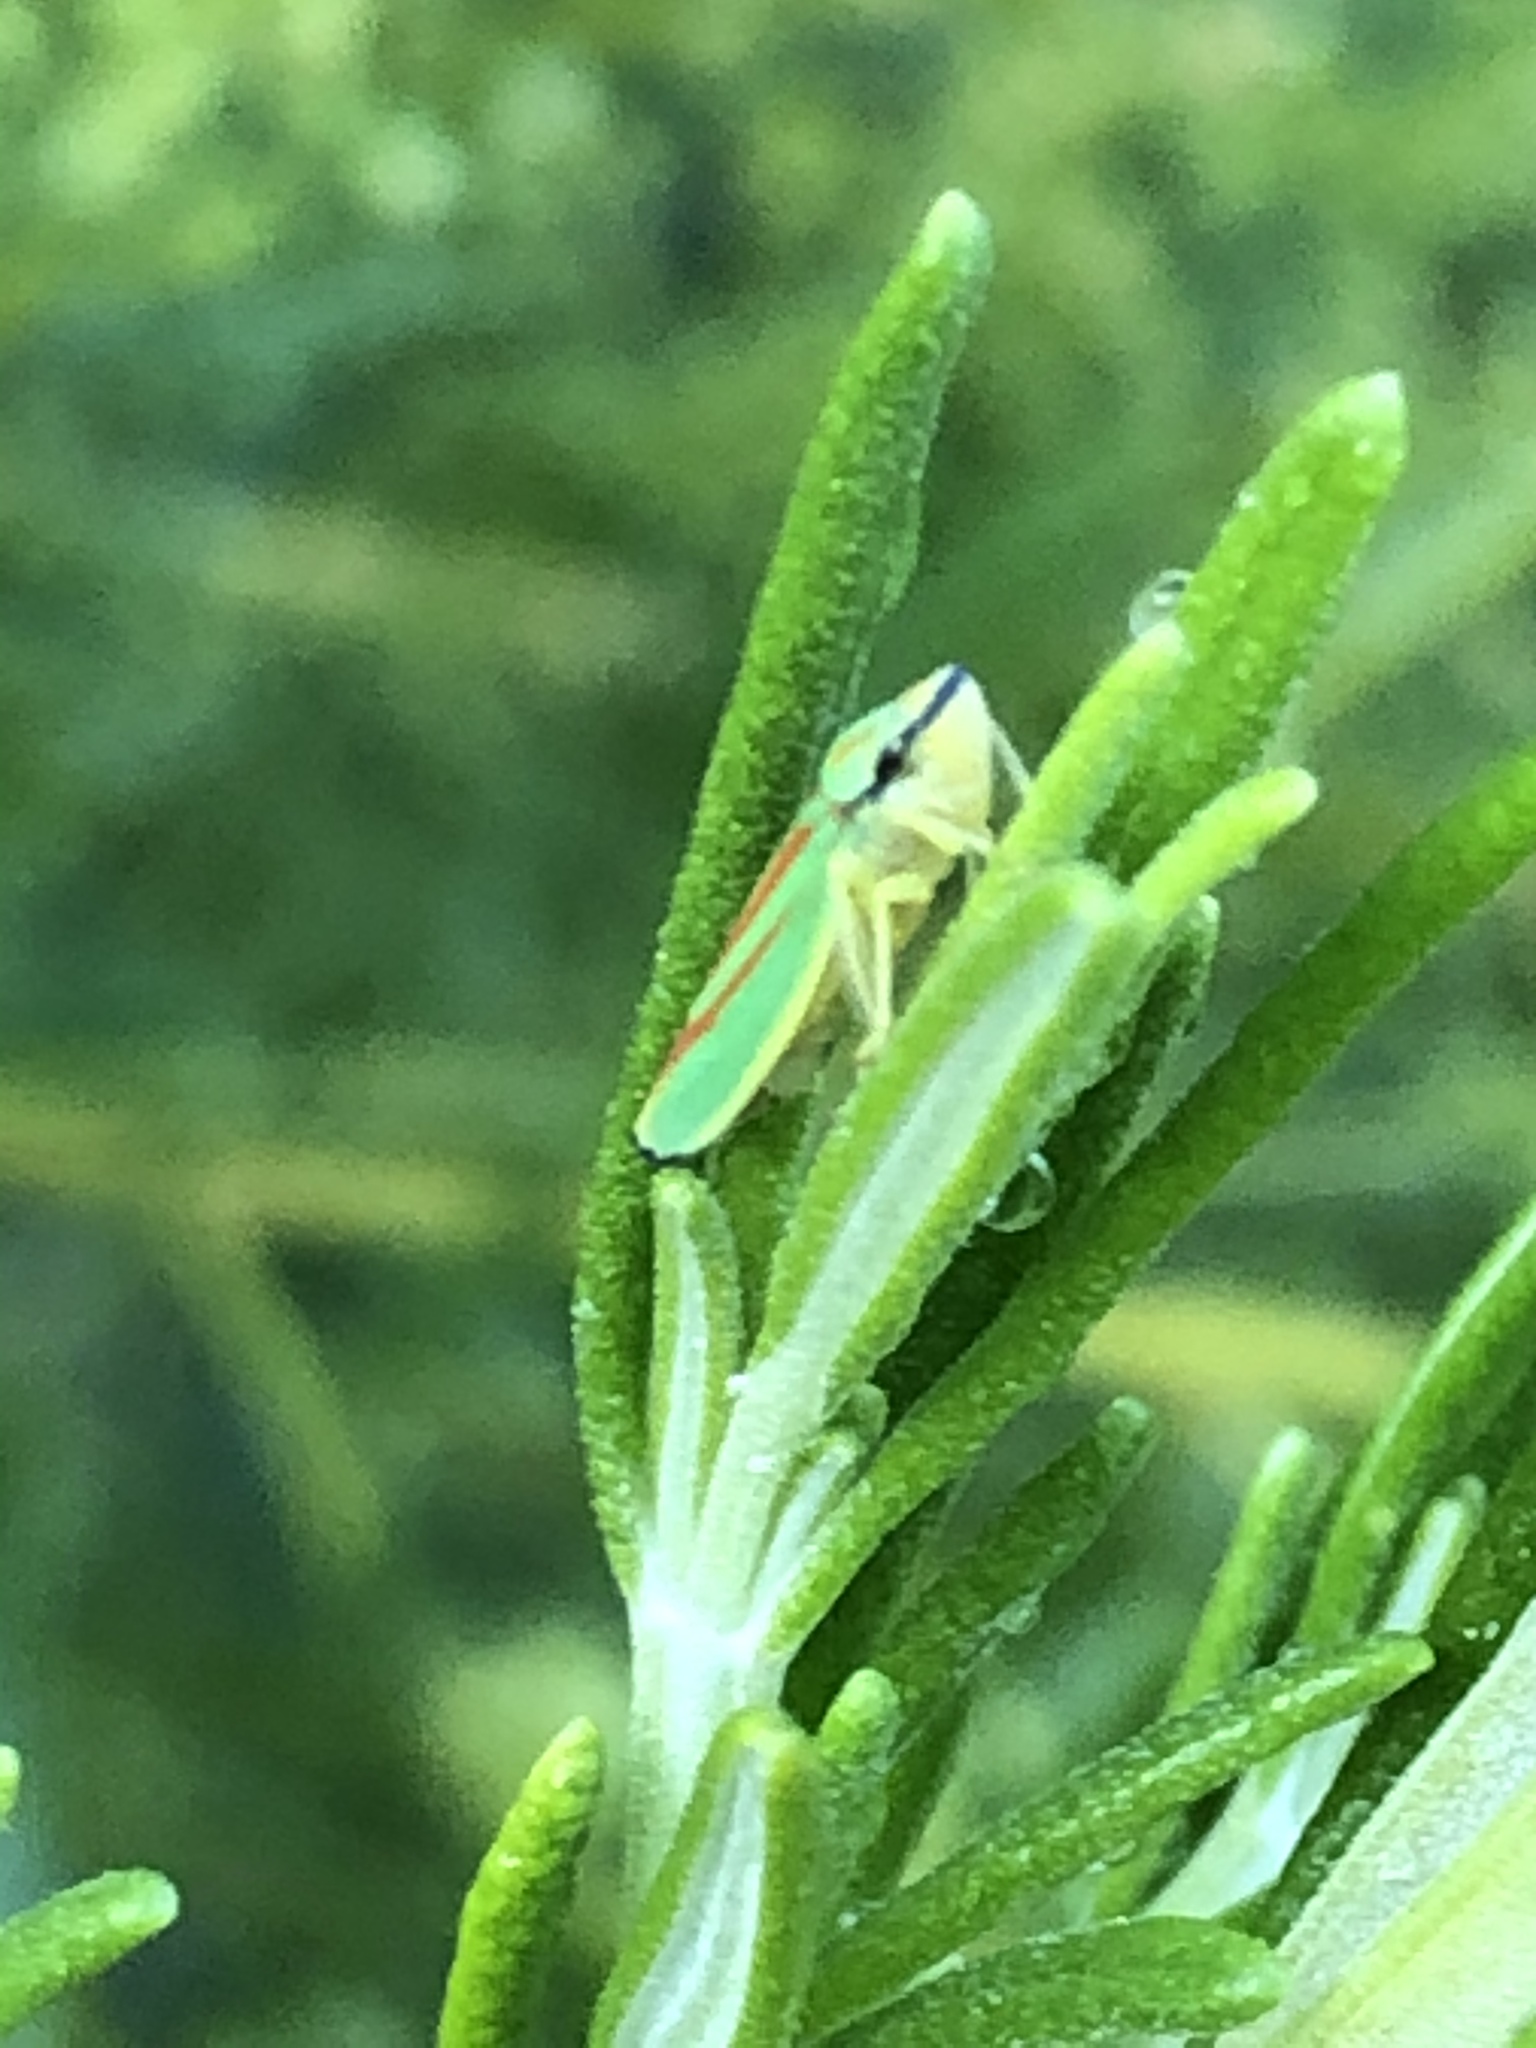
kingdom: Animalia
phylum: Arthropoda
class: Insecta
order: Hemiptera
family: Cicadellidae
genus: Graphocephala
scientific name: Graphocephala fennahi
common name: Rhododendron leafhopper
